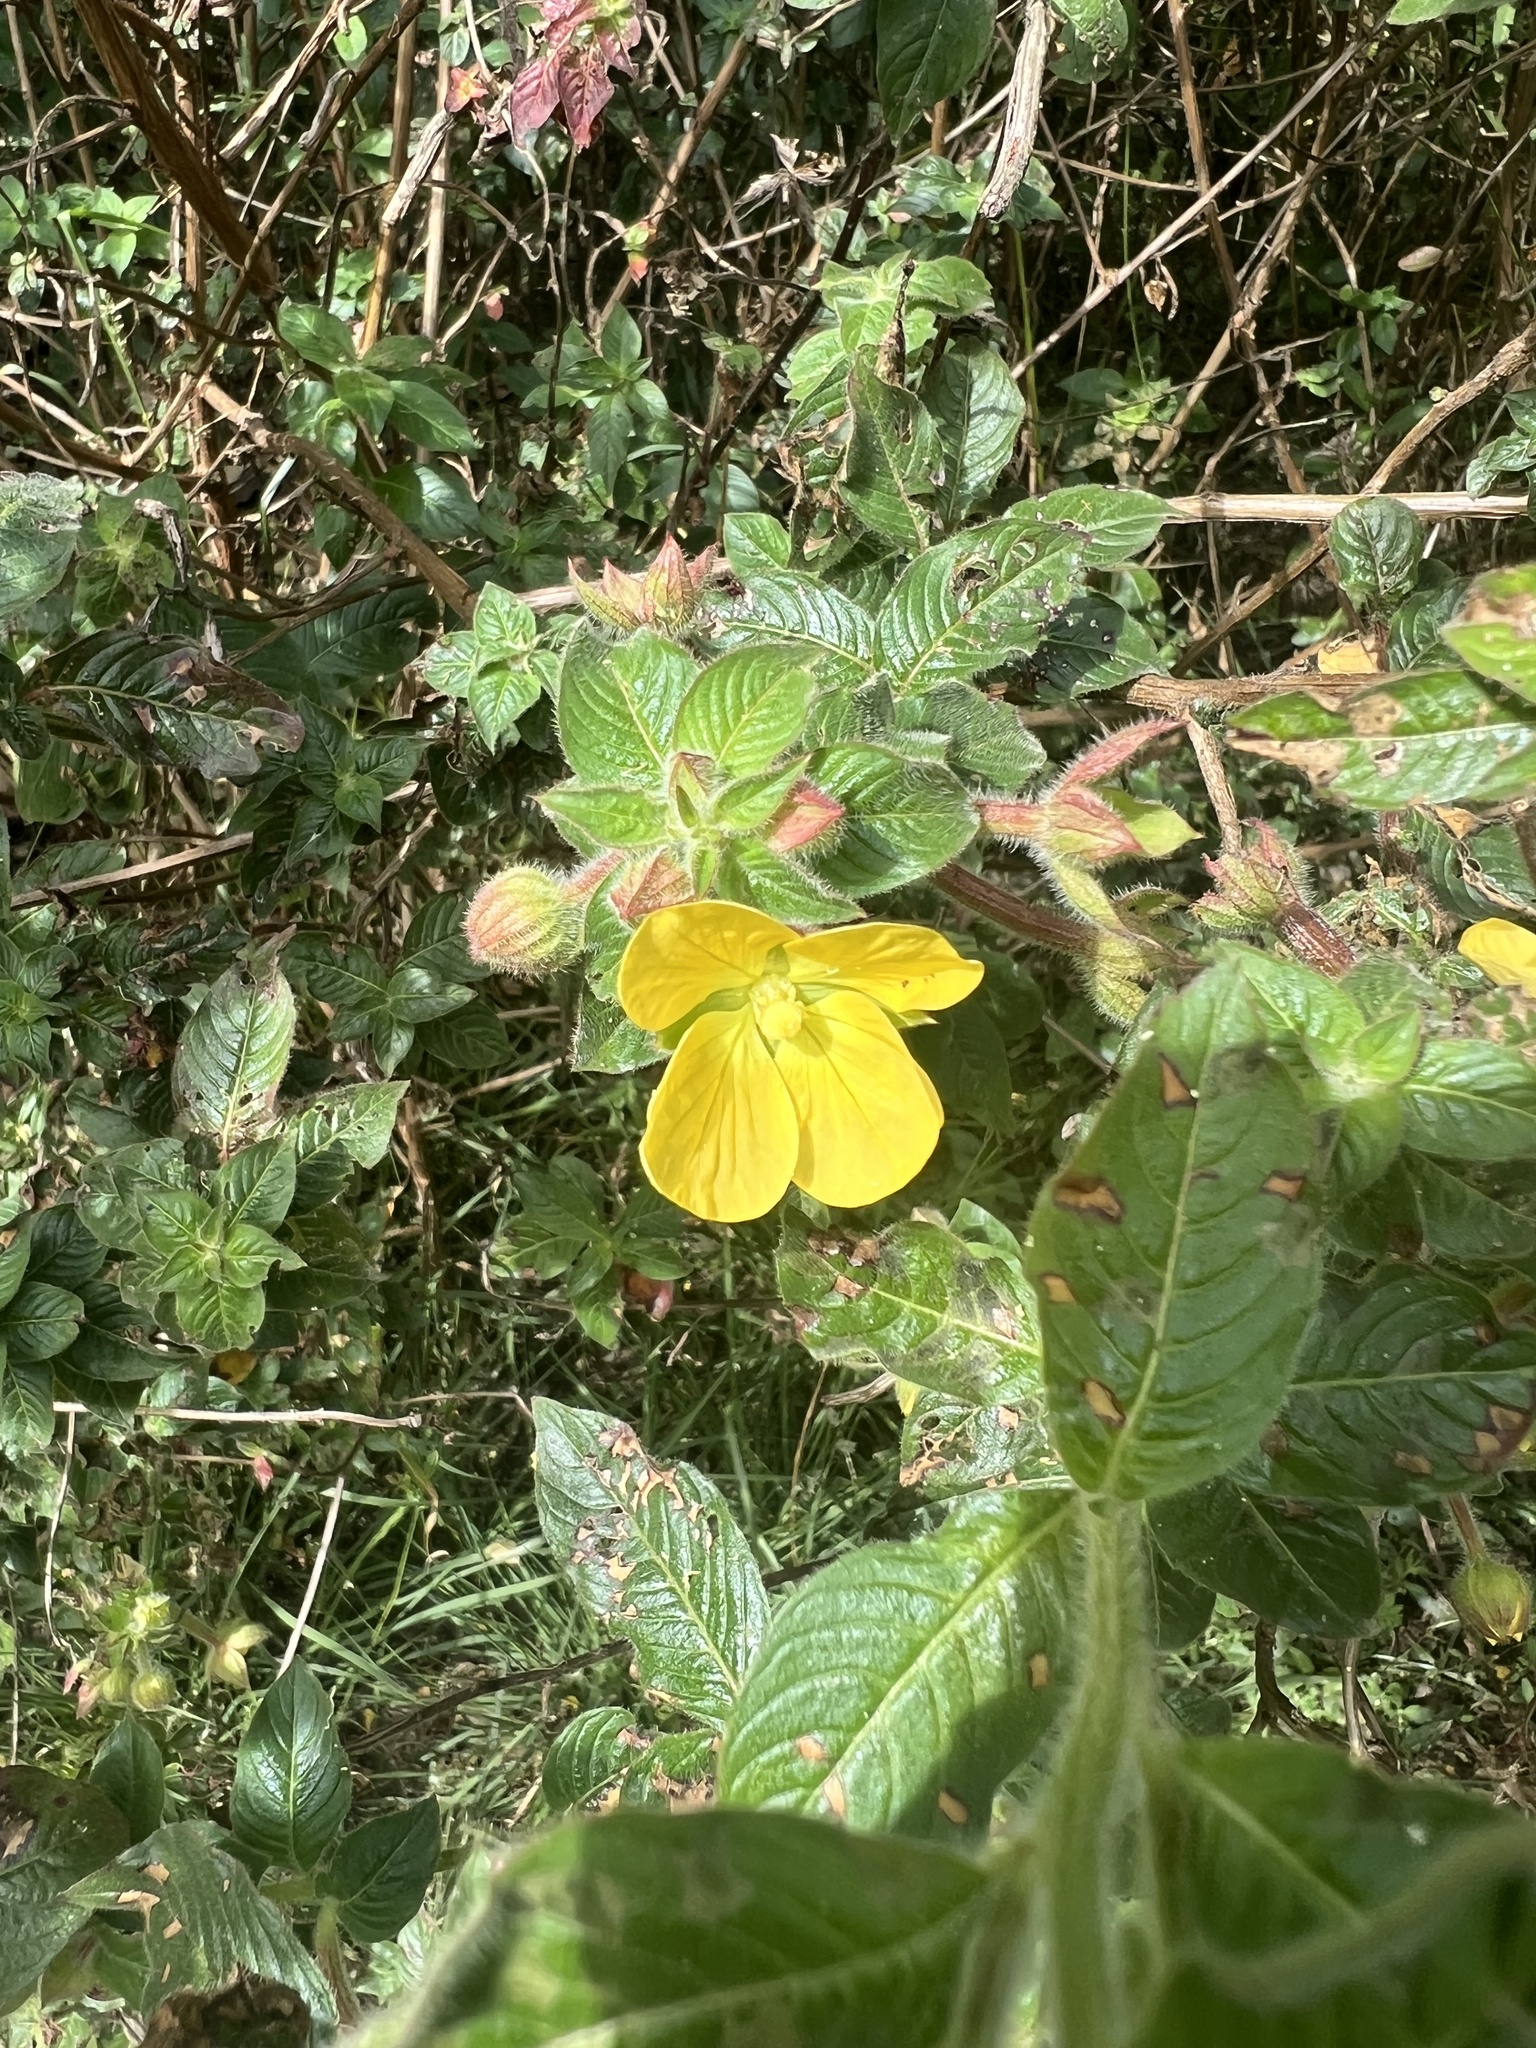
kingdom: Plantae
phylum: Tracheophyta
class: Magnoliopsida
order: Myrtales
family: Onagraceae
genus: Ludwigia
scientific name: Ludwigia octovalvis
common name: Water-primrose
